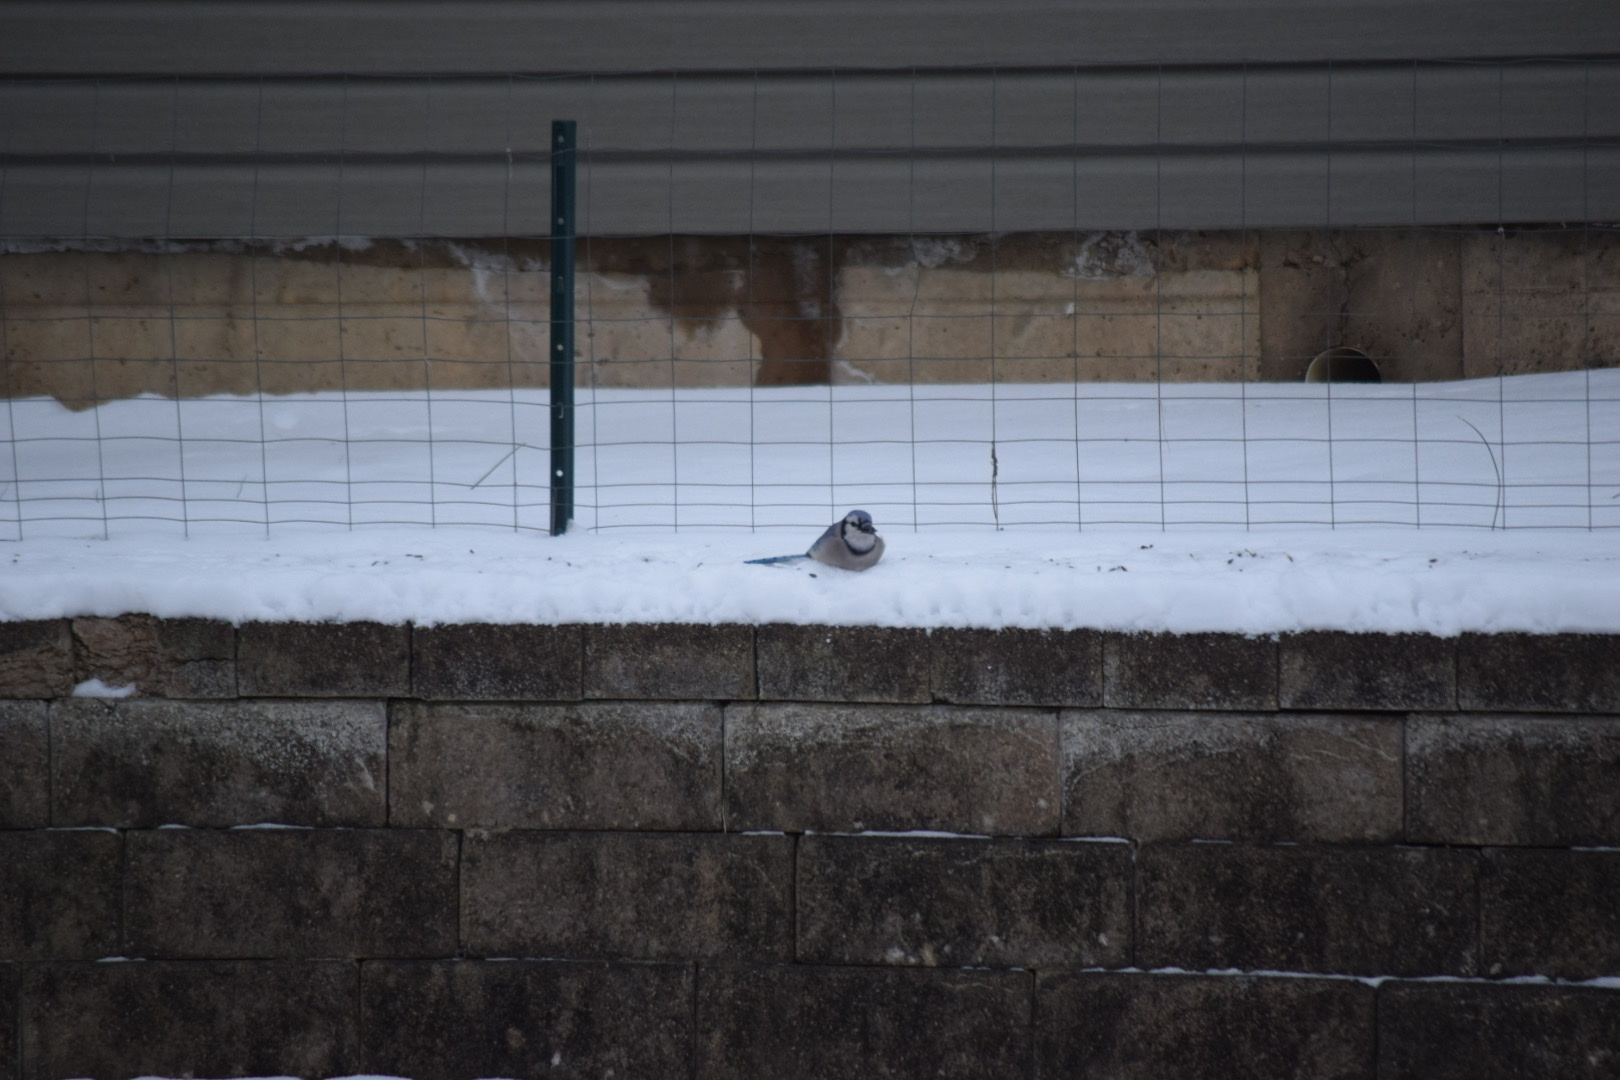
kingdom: Animalia
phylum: Chordata
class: Aves
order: Passeriformes
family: Corvidae
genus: Cyanocitta
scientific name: Cyanocitta cristata
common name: Blue jay
